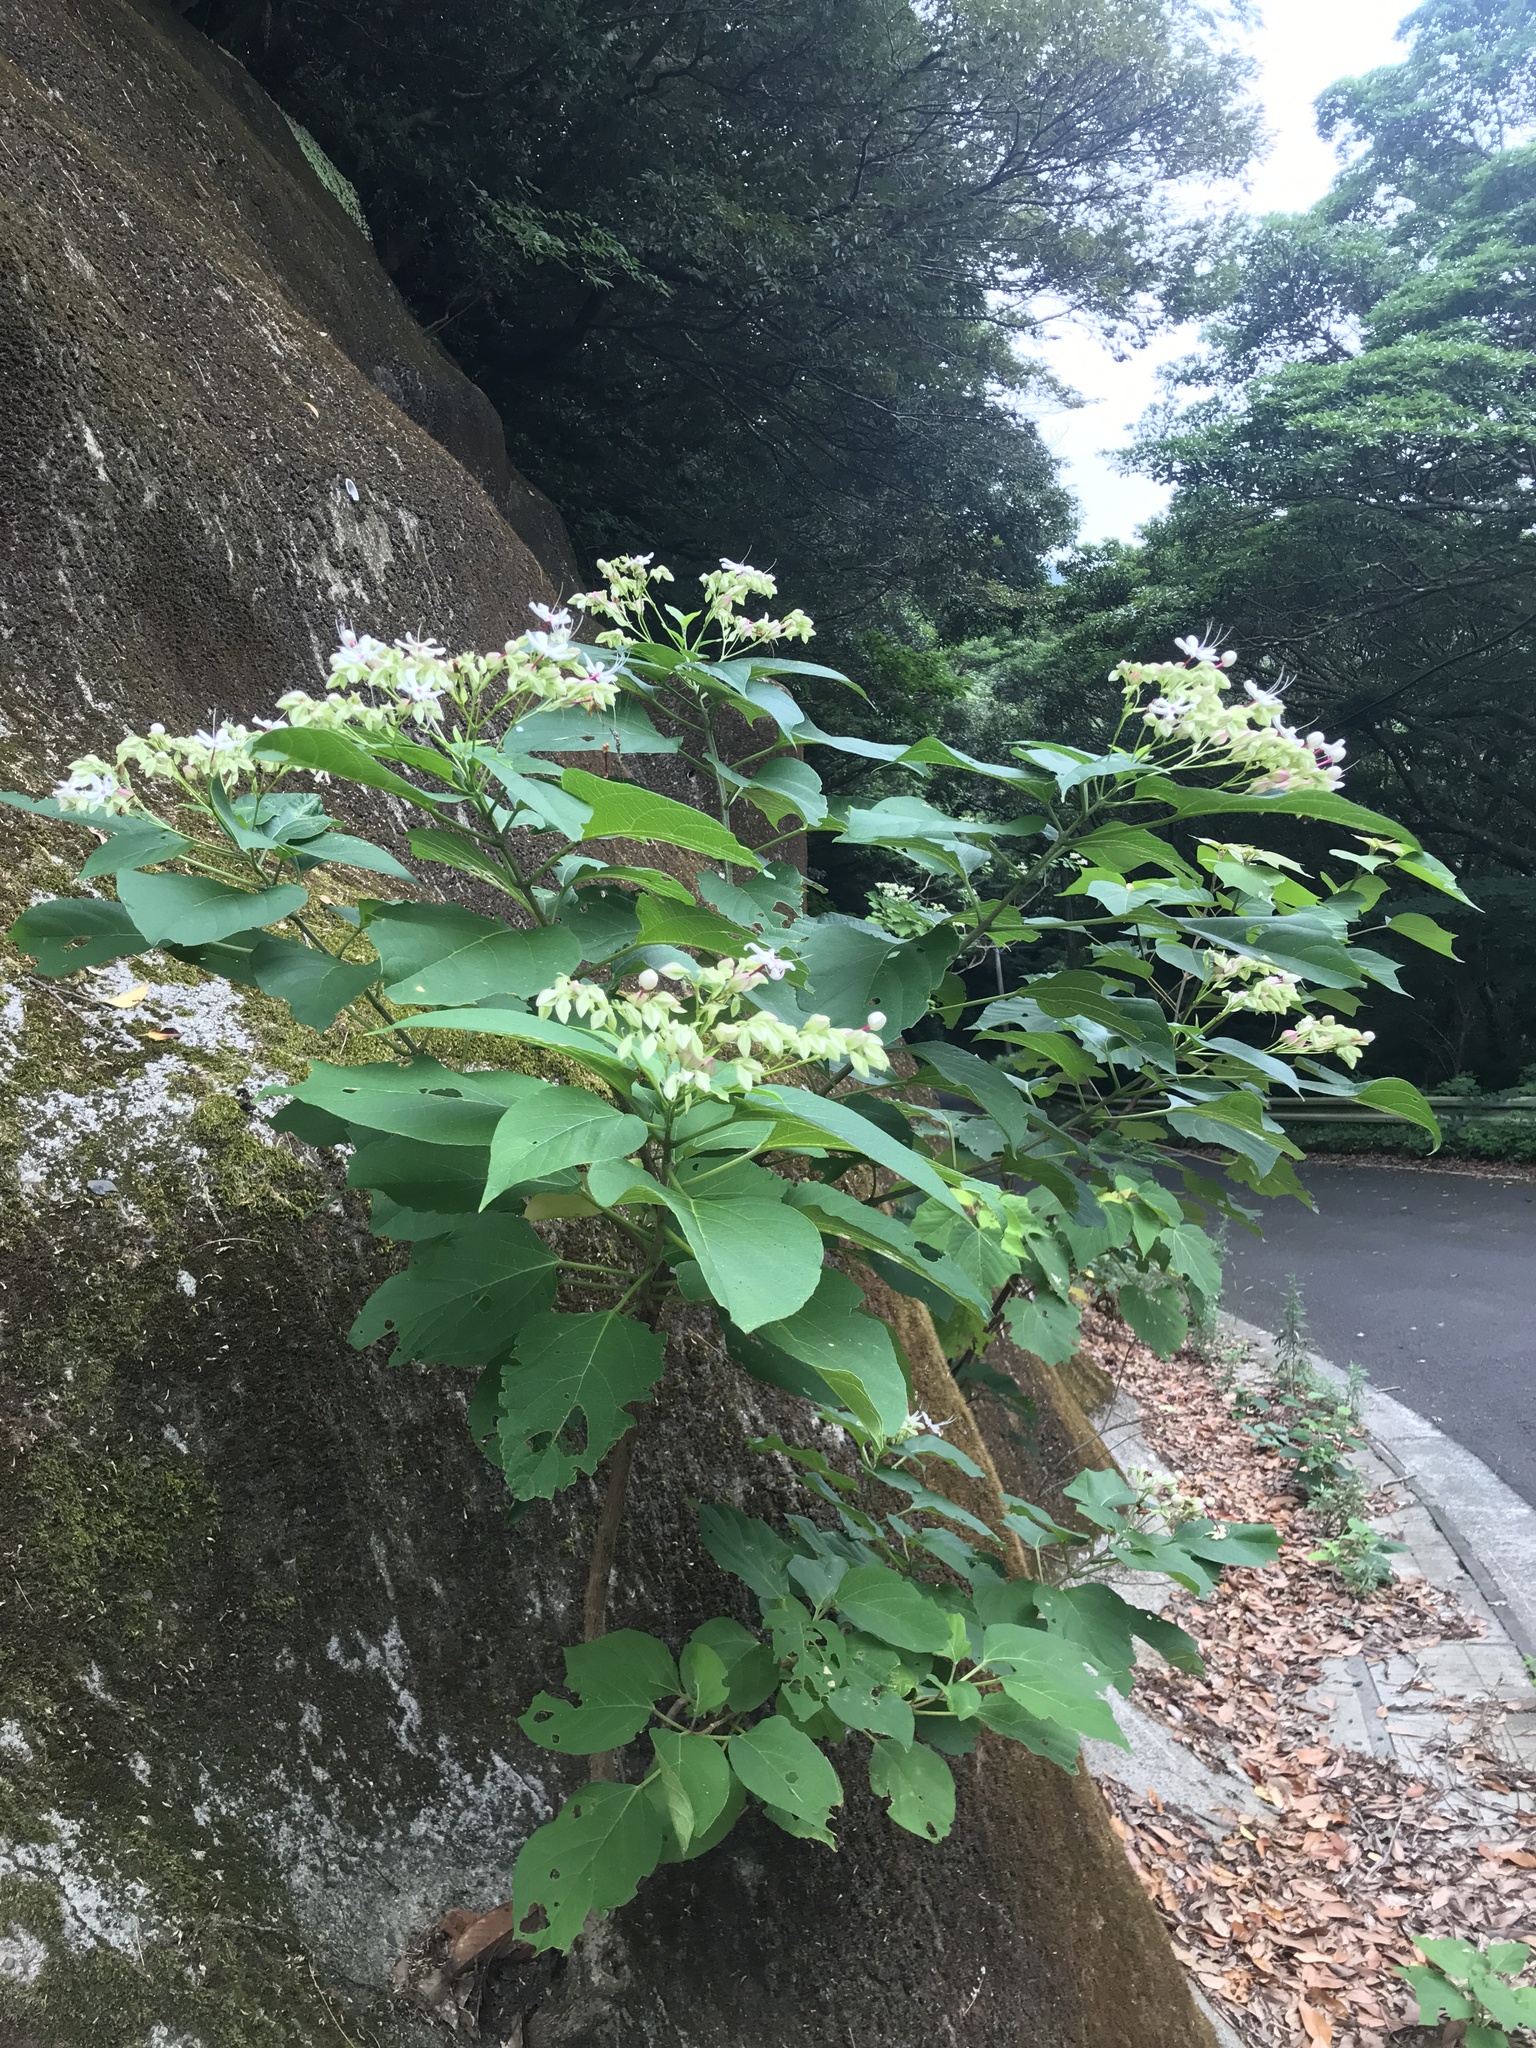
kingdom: Plantae
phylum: Tracheophyta
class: Magnoliopsida
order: Lamiales
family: Lamiaceae
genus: Clerodendrum
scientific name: Clerodendrum trichotomum
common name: Harlequin glorybower
